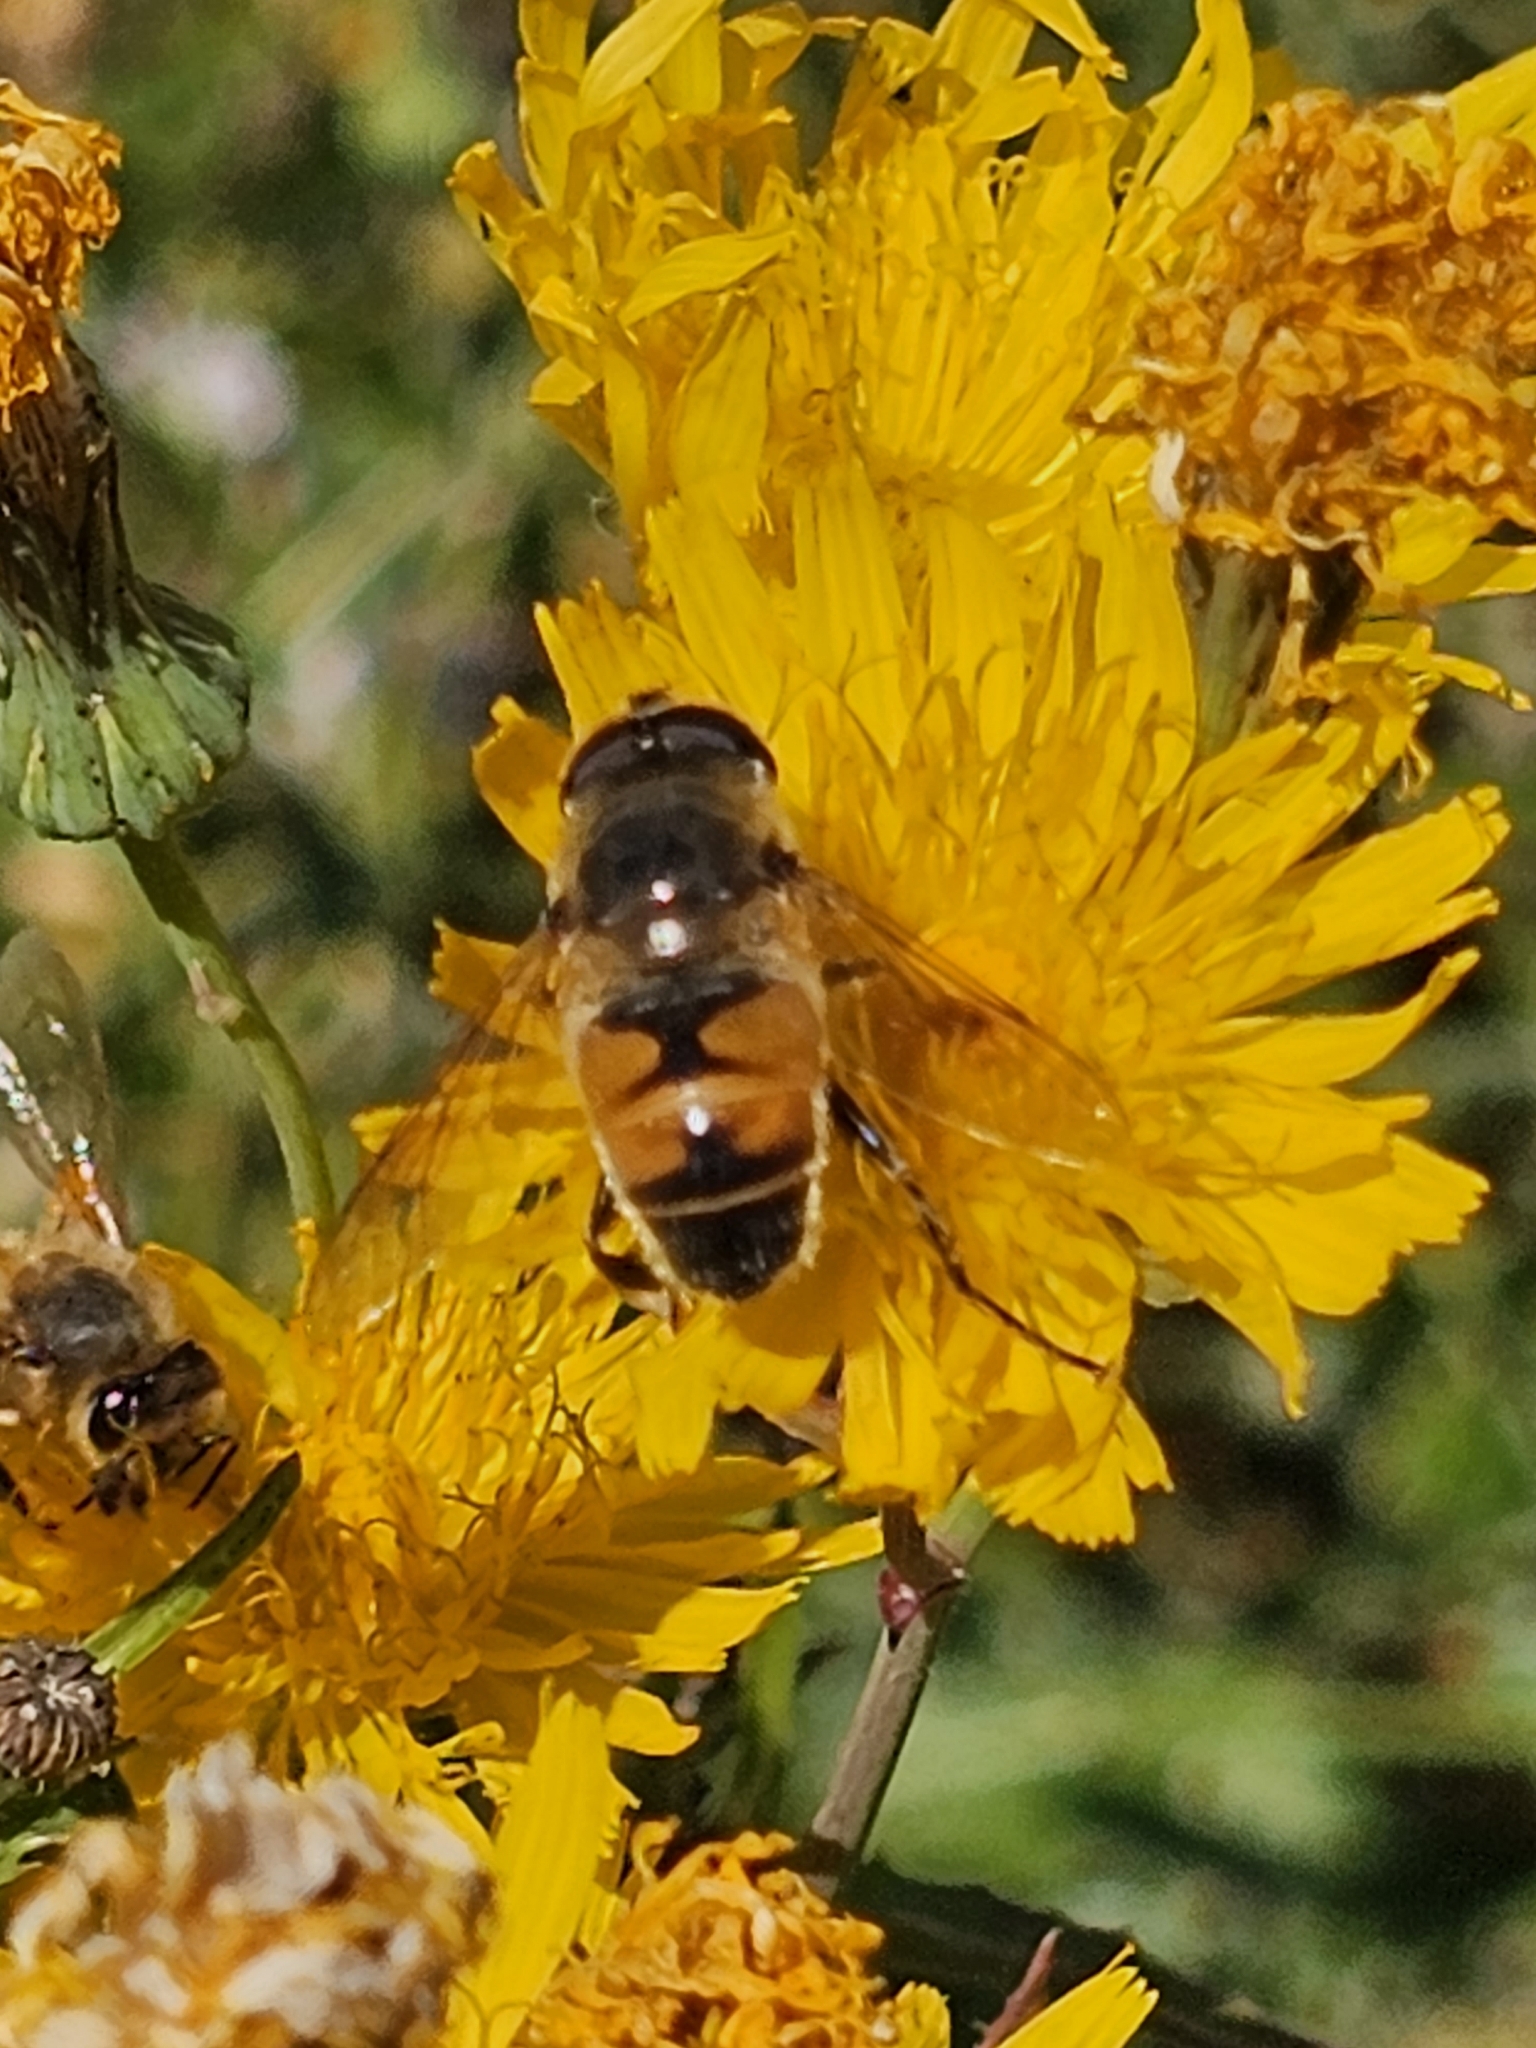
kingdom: Animalia
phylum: Arthropoda
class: Insecta
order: Diptera
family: Syrphidae
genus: Eristalis
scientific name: Eristalis tenax
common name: Drone fly
